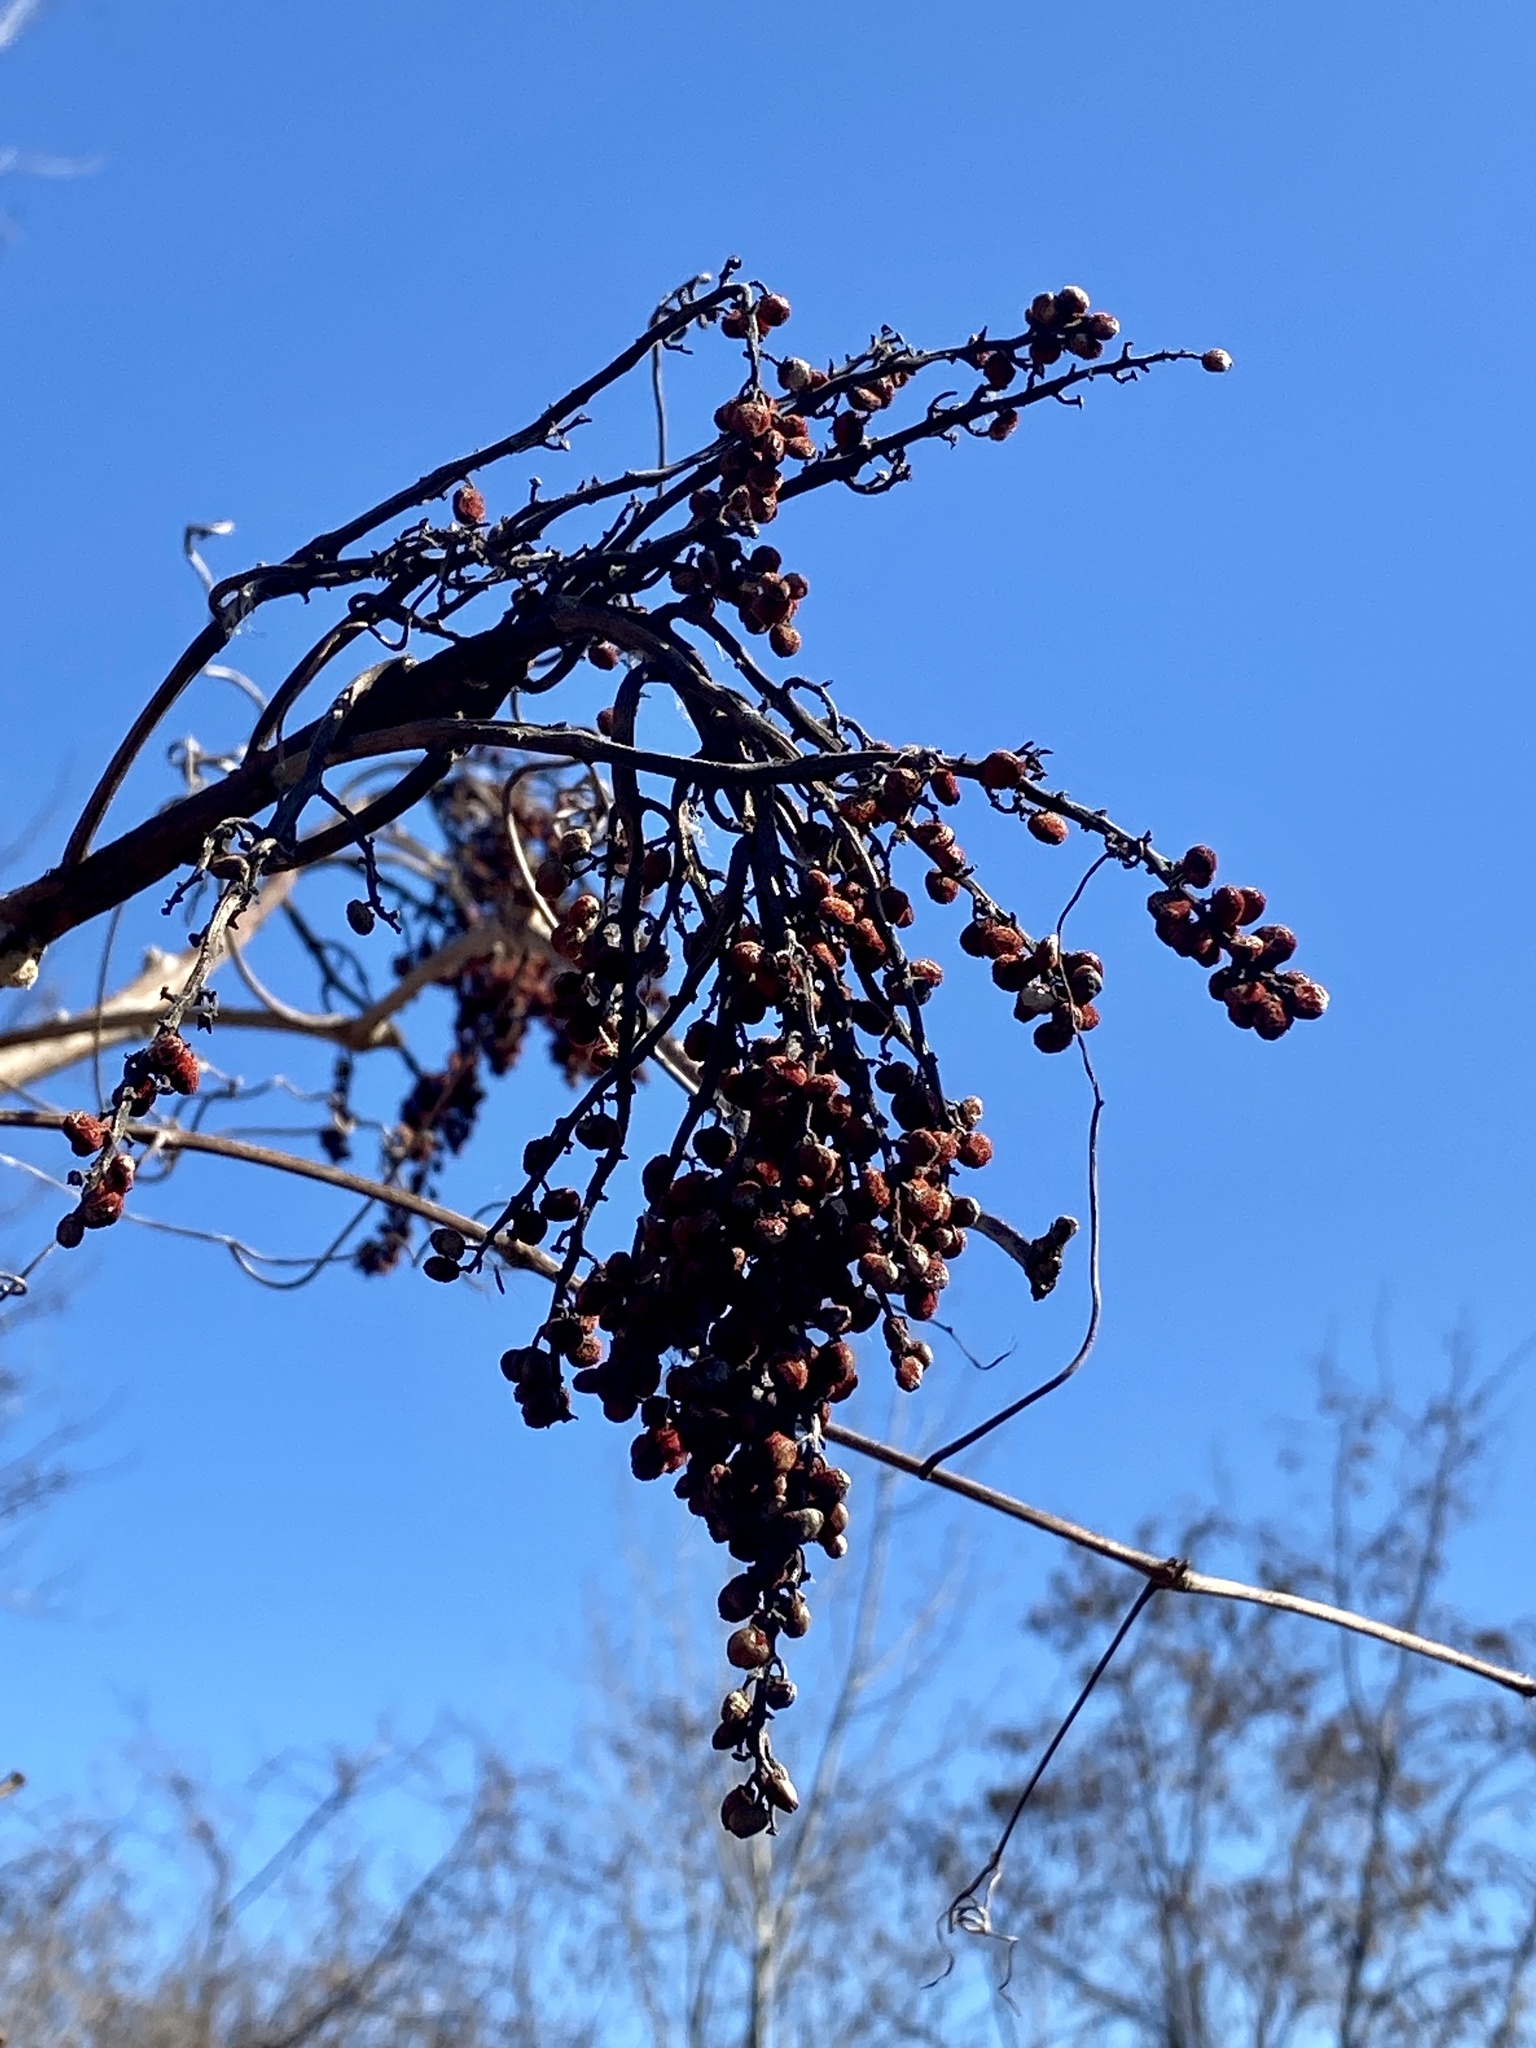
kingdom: Plantae
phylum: Tracheophyta
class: Magnoliopsida
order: Sapindales
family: Anacardiaceae
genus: Rhus
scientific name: Rhus glabra
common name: Scarlet sumac
